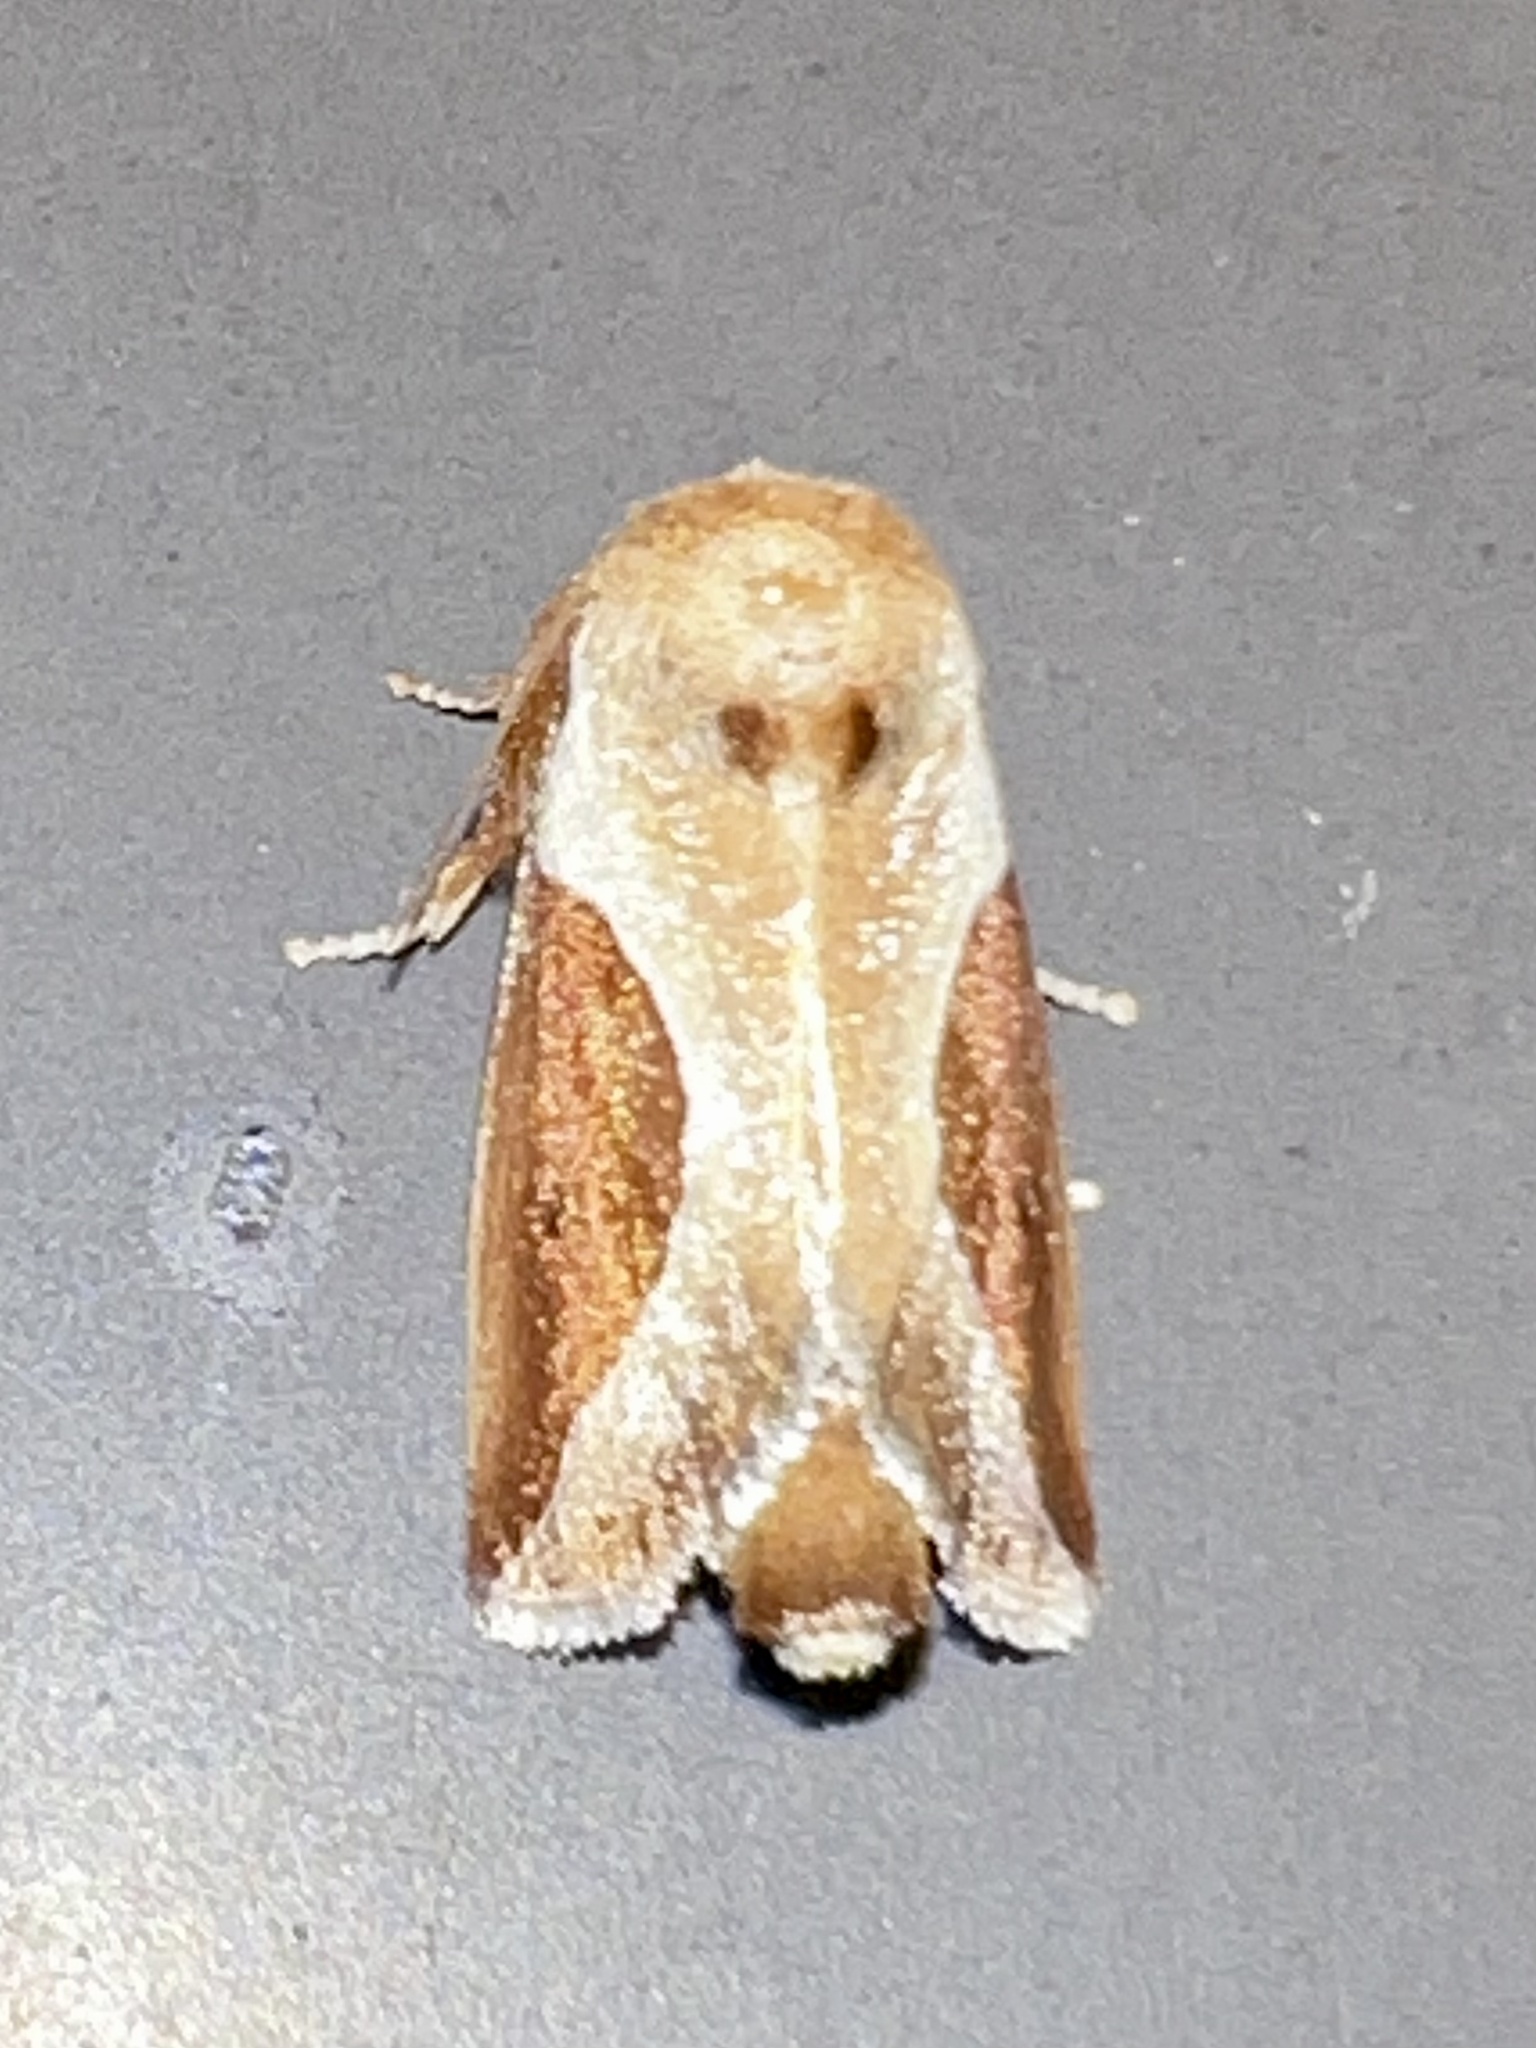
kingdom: Animalia
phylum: Arthropoda
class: Insecta
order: Lepidoptera
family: Limacodidae
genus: Prolimacodes
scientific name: Prolimacodes badia
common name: Skiff moth
